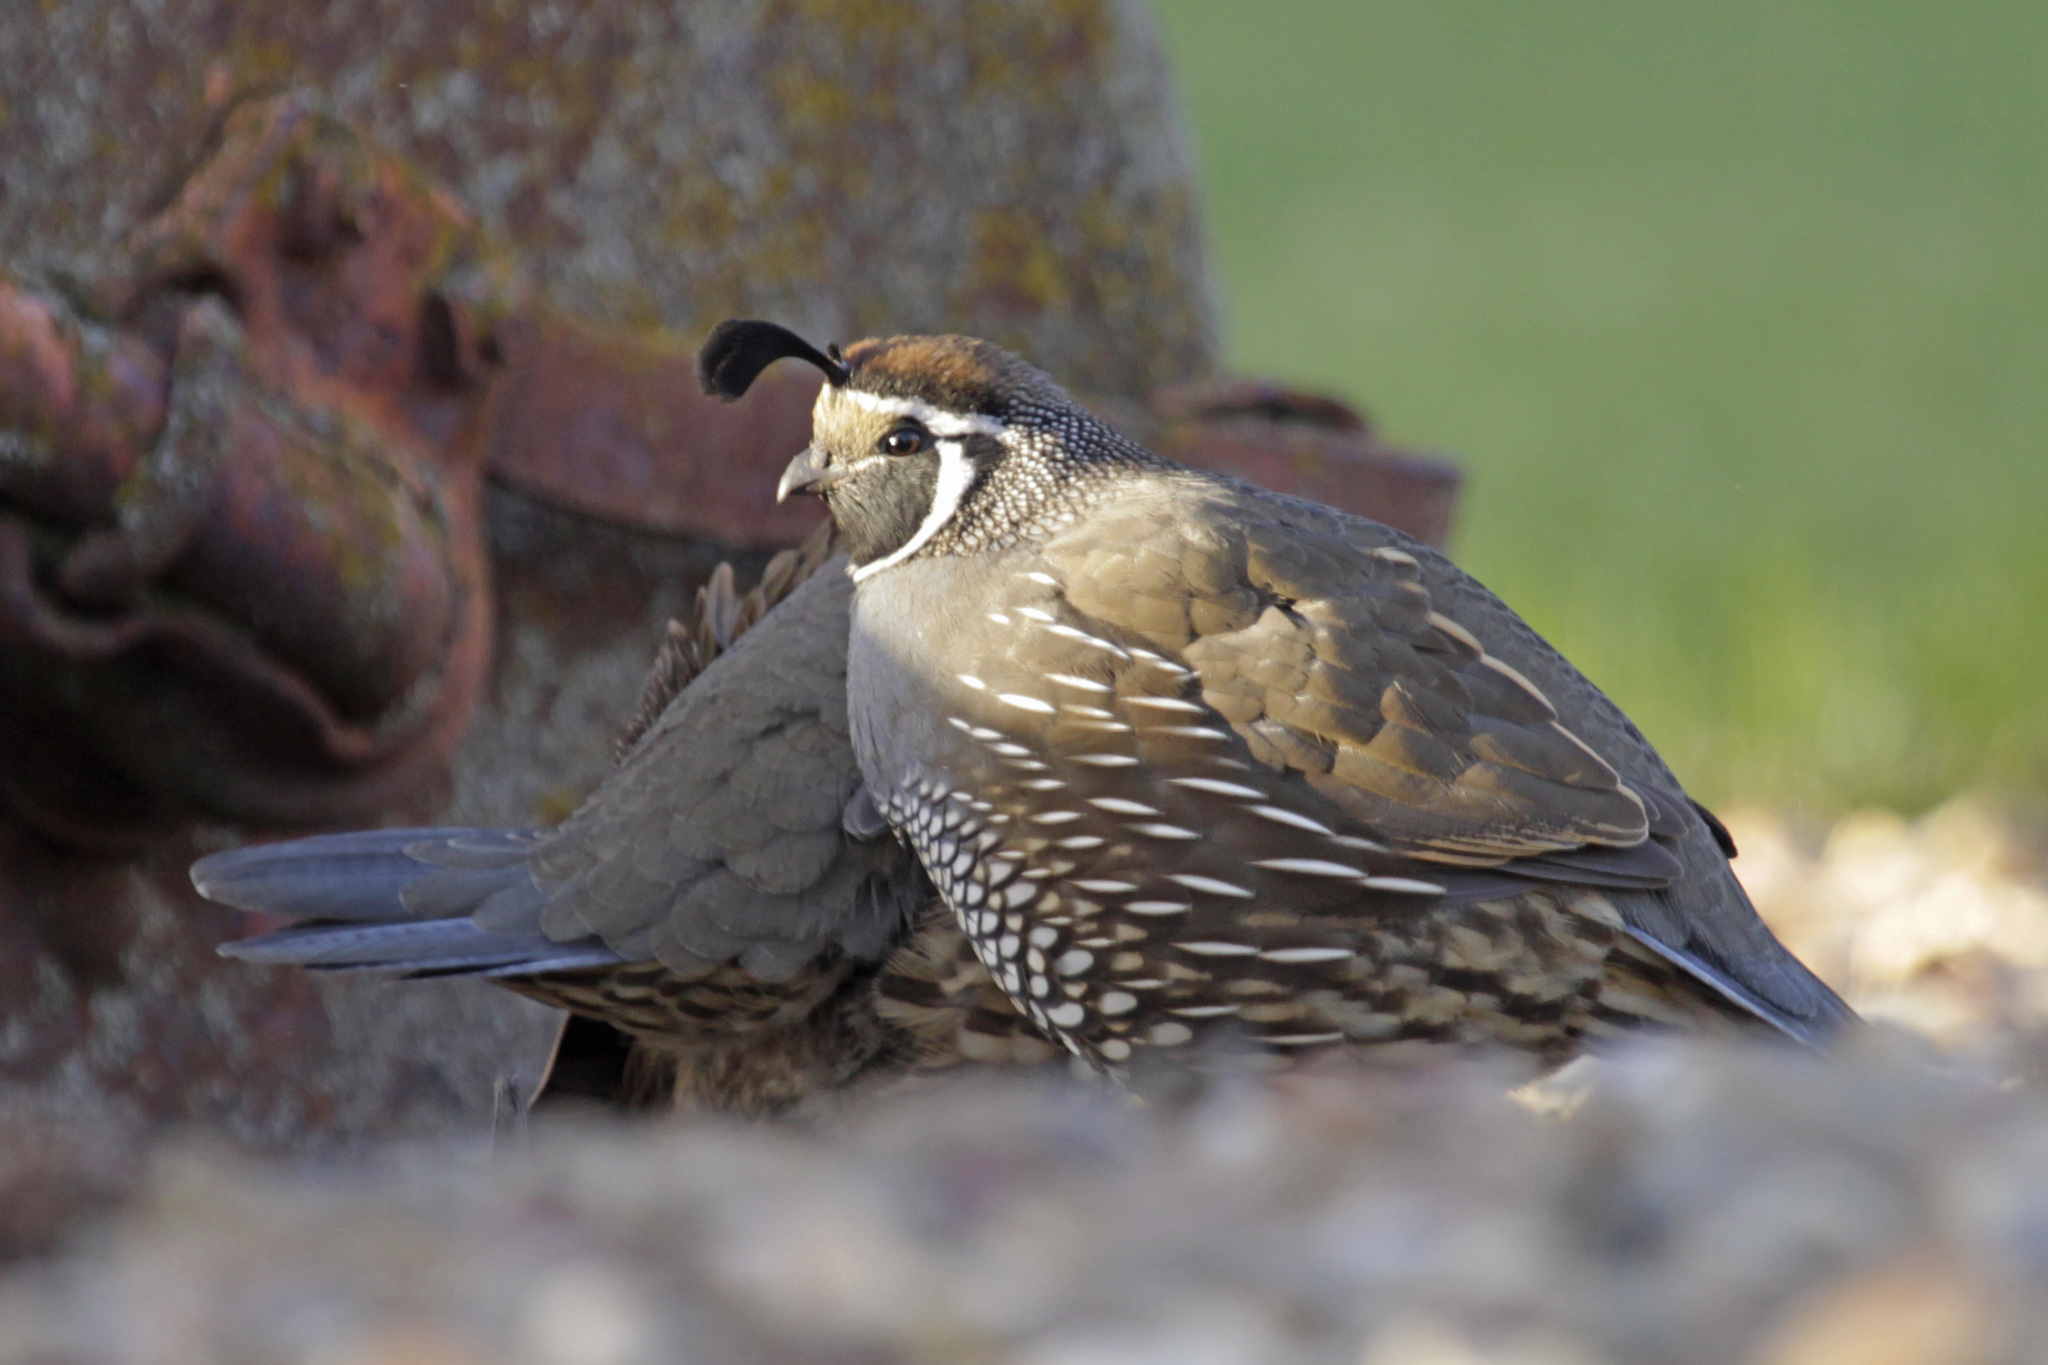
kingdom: Animalia
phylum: Chordata
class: Aves
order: Galliformes
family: Odontophoridae
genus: Callipepla
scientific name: Callipepla californica
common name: California quail
